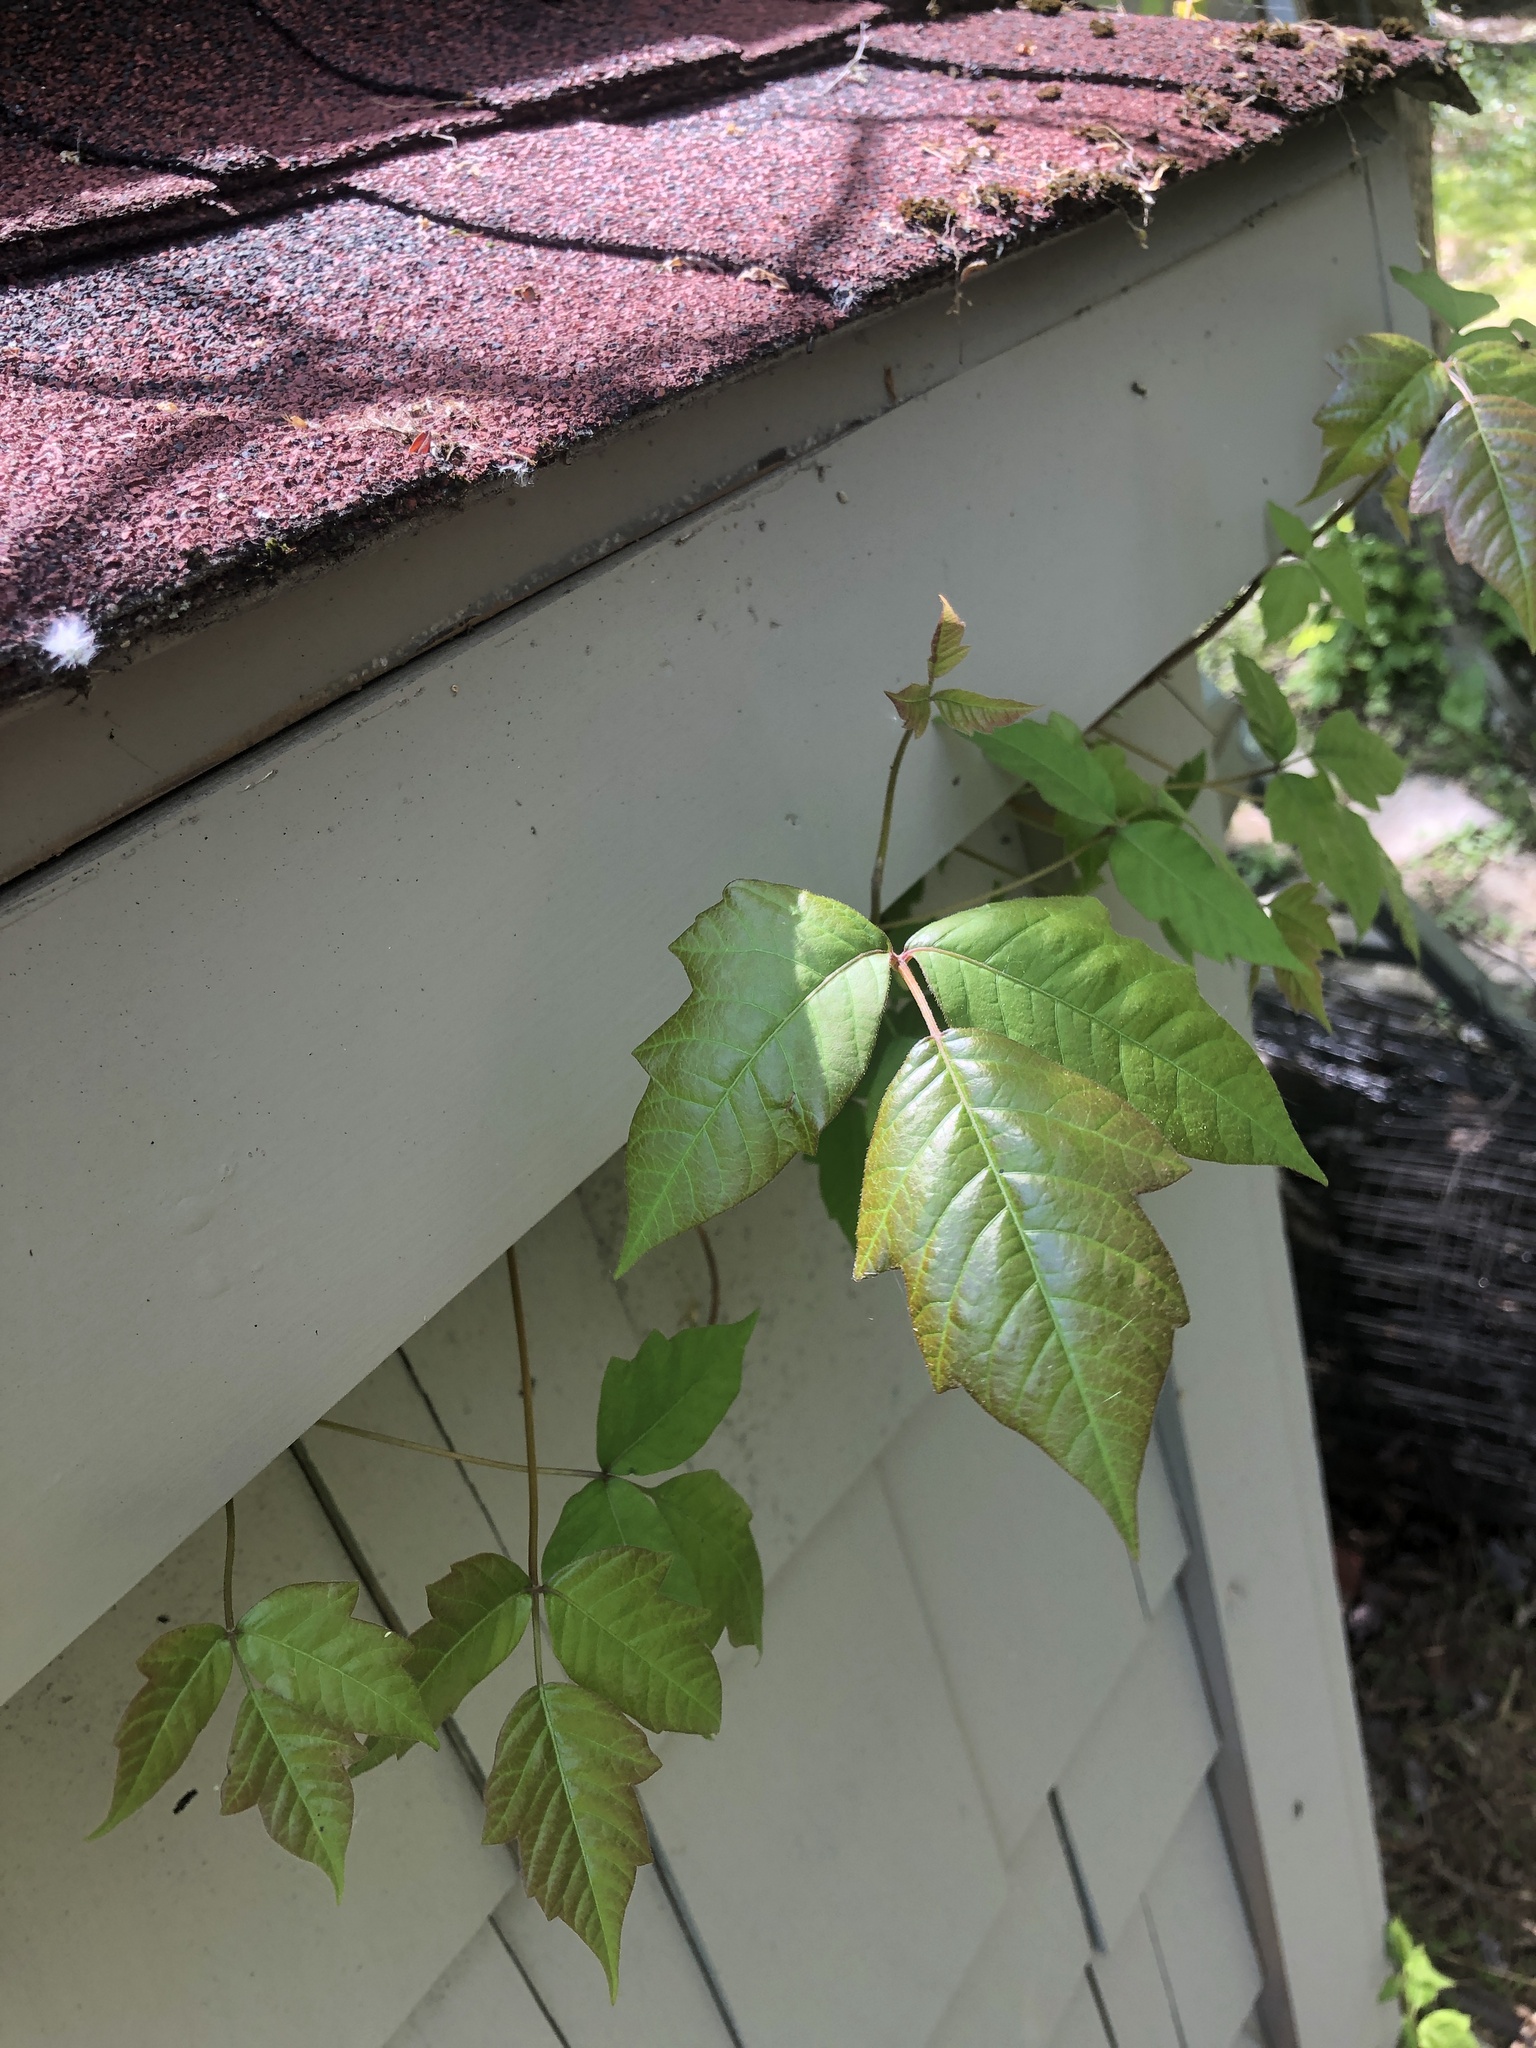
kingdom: Plantae
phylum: Tracheophyta
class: Magnoliopsida
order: Sapindales
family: Anacardiaceae
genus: Toxicodendron
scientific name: Toxicodendron radicans
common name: Poison ivy
